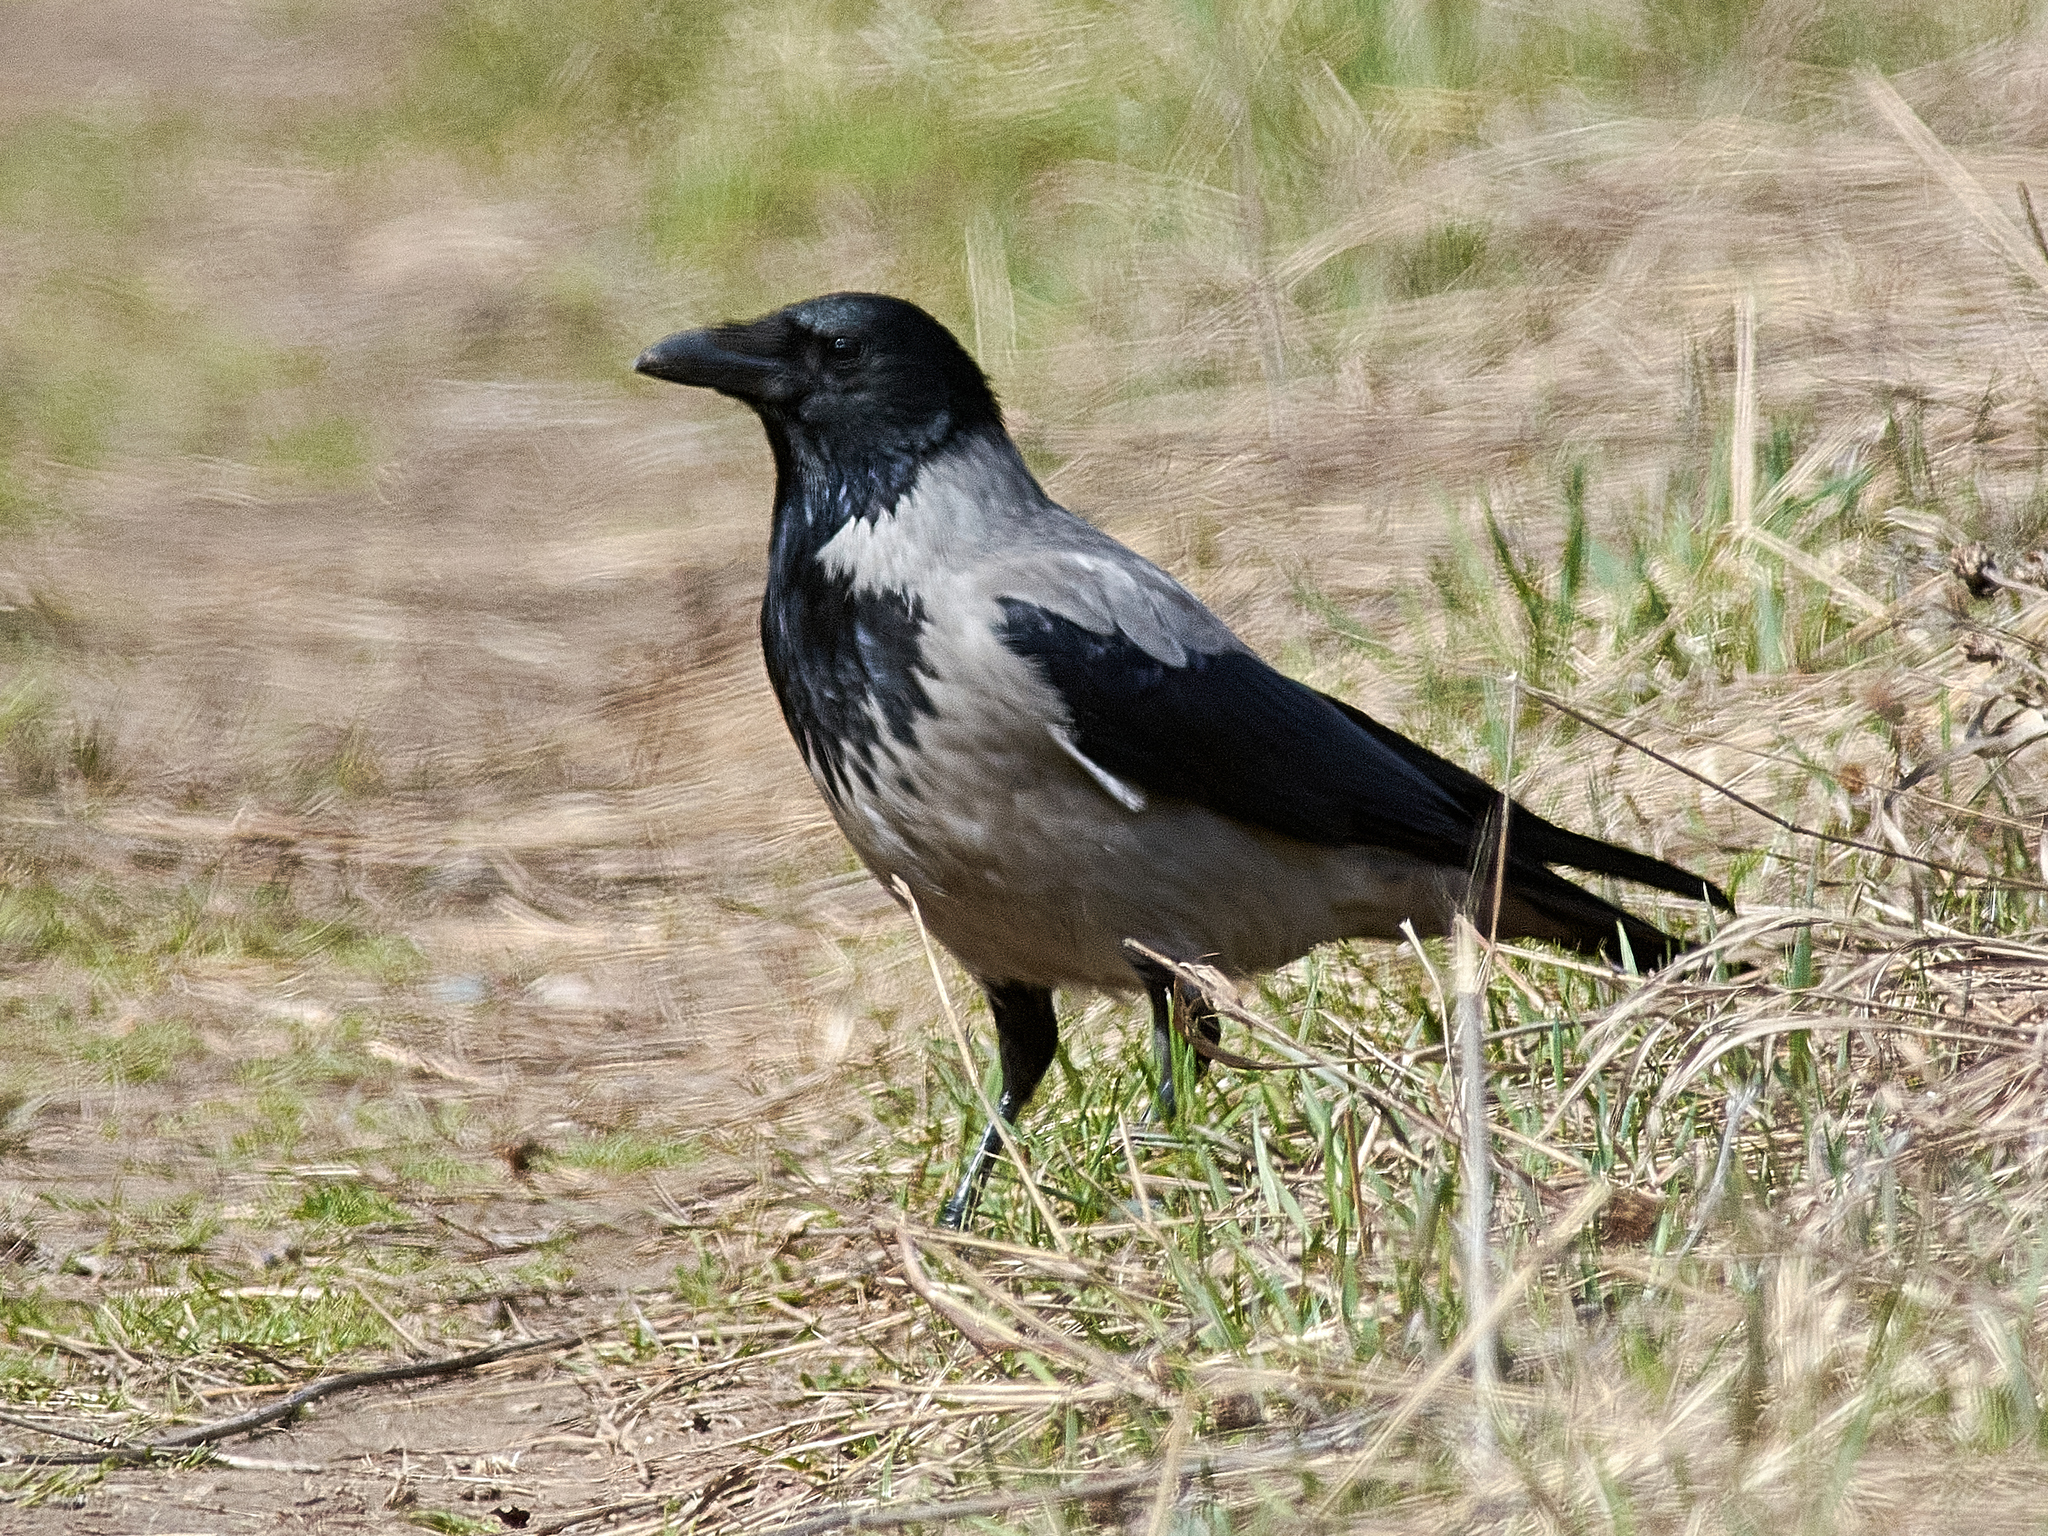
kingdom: Animalia
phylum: Chordata
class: Aves
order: Passeriformes
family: Corvidae
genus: Corvus
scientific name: Corvus cornix
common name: Hooded crow
